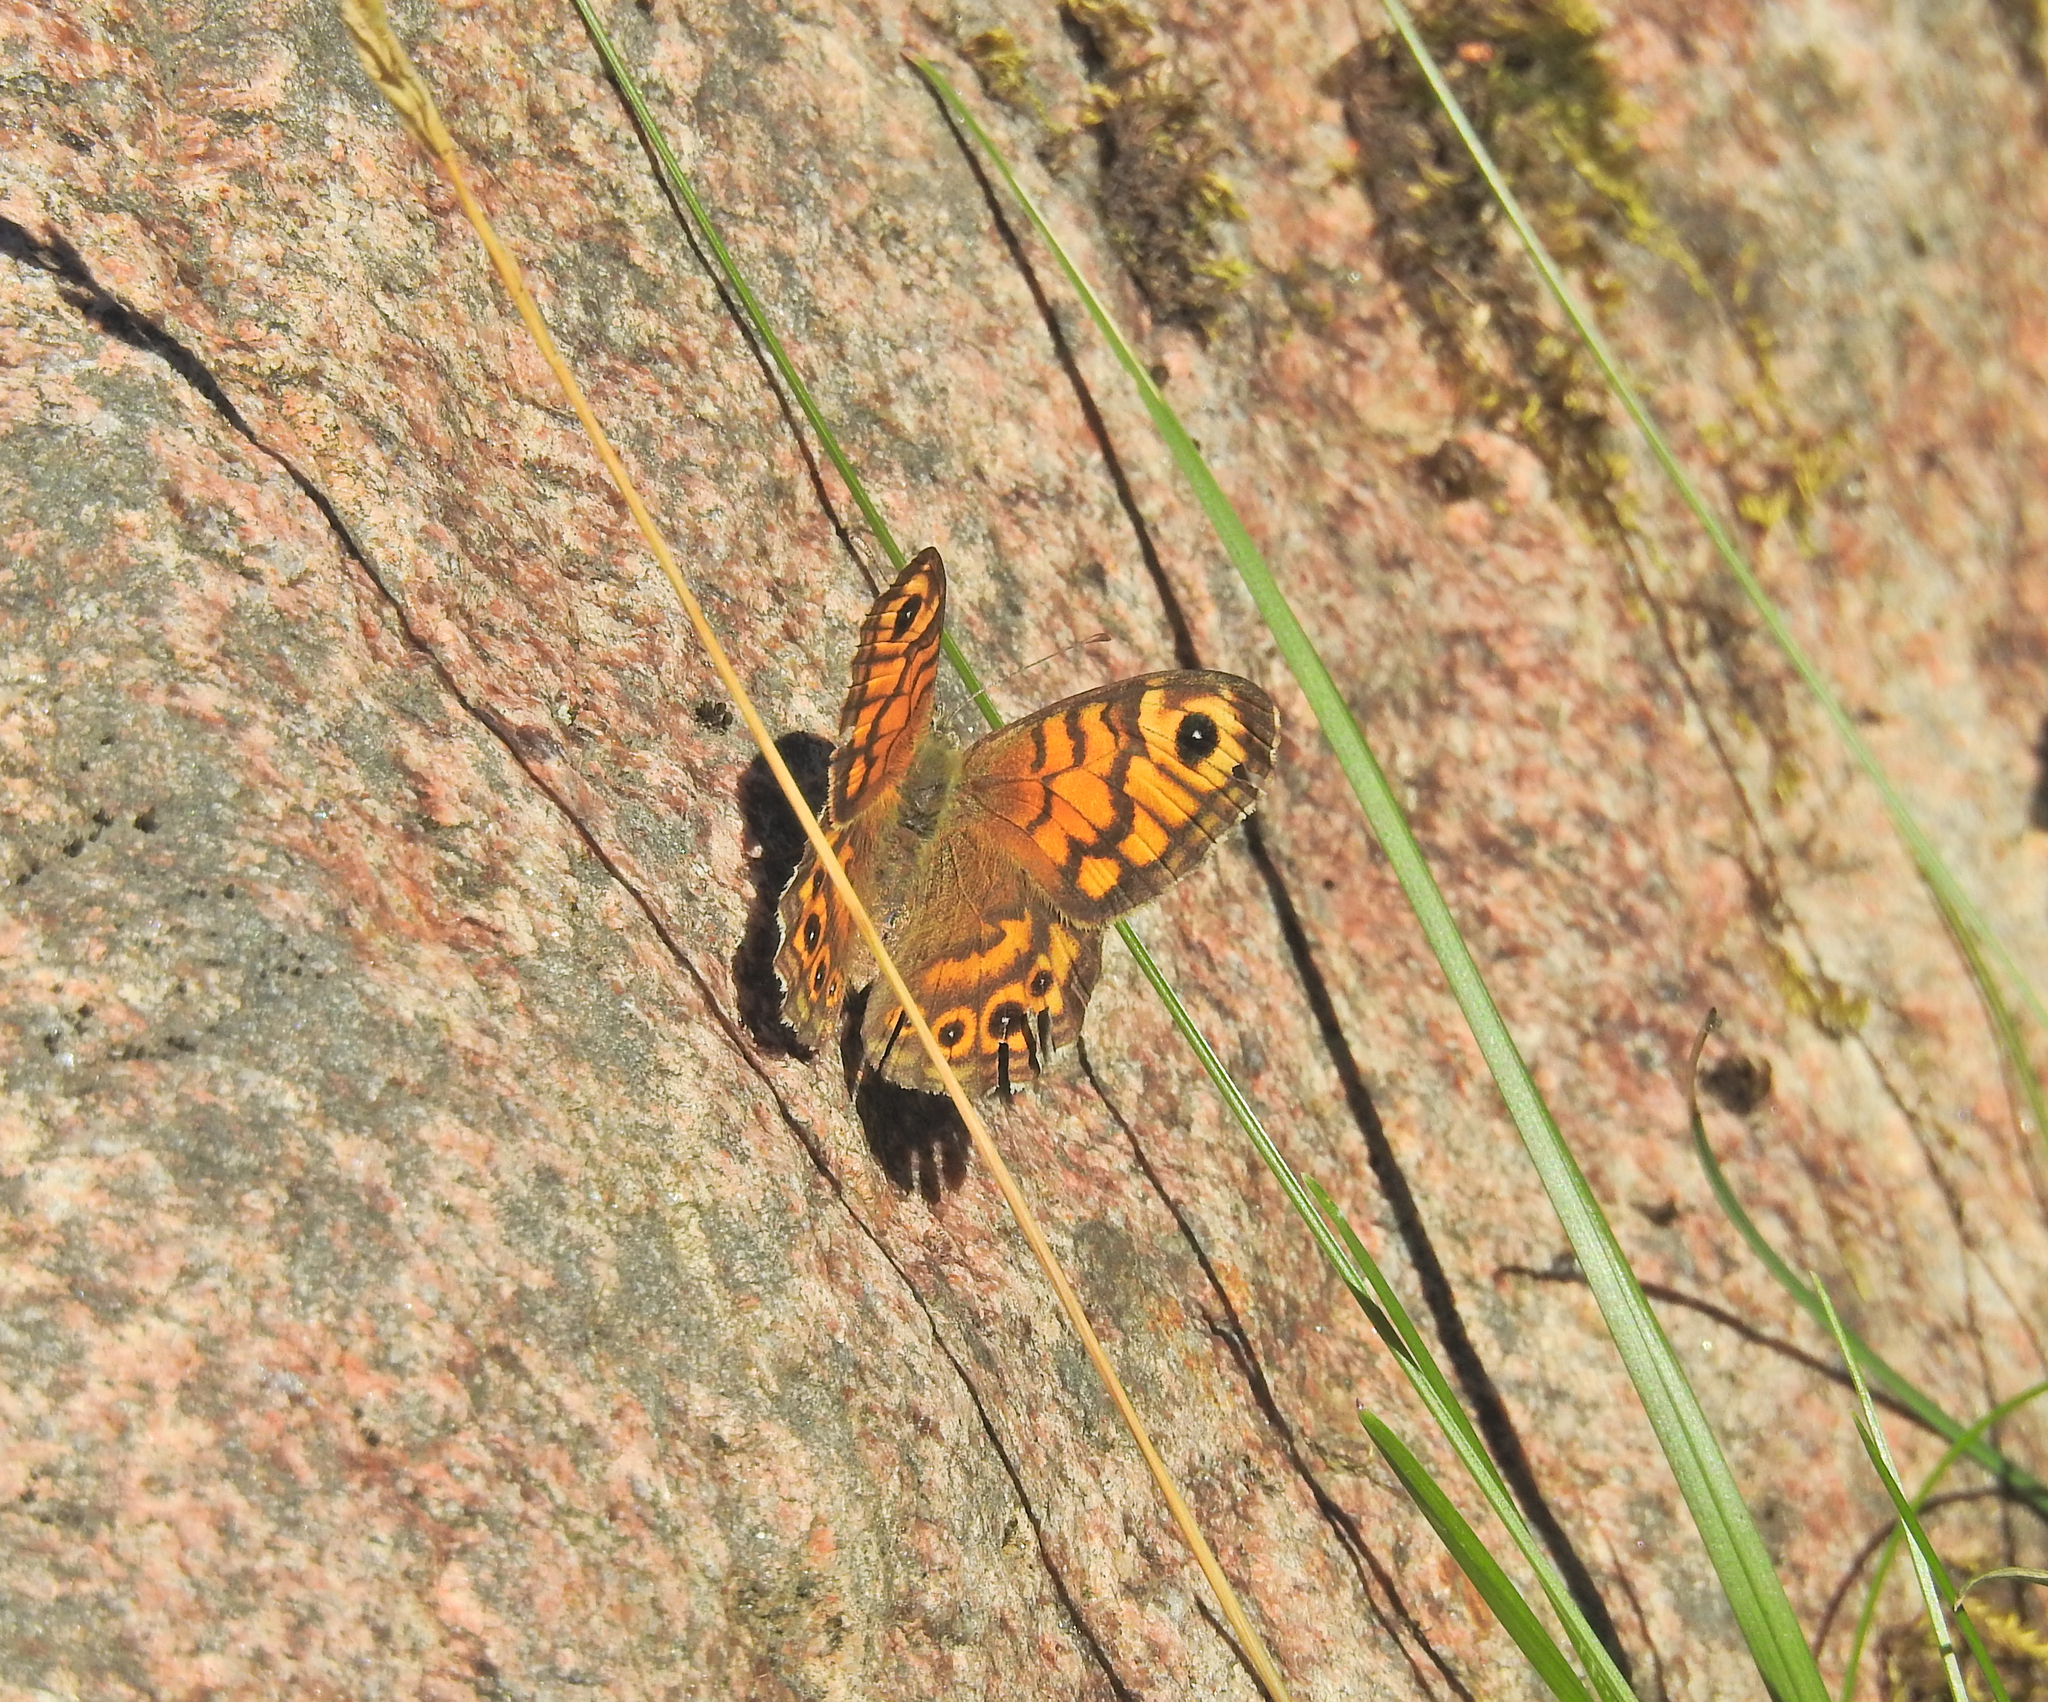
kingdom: Animalia
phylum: Arthropoda
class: Insecta
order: Lepidoptera
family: Nymphalidae
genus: Pararge
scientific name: Pararge Lasiommata megera
